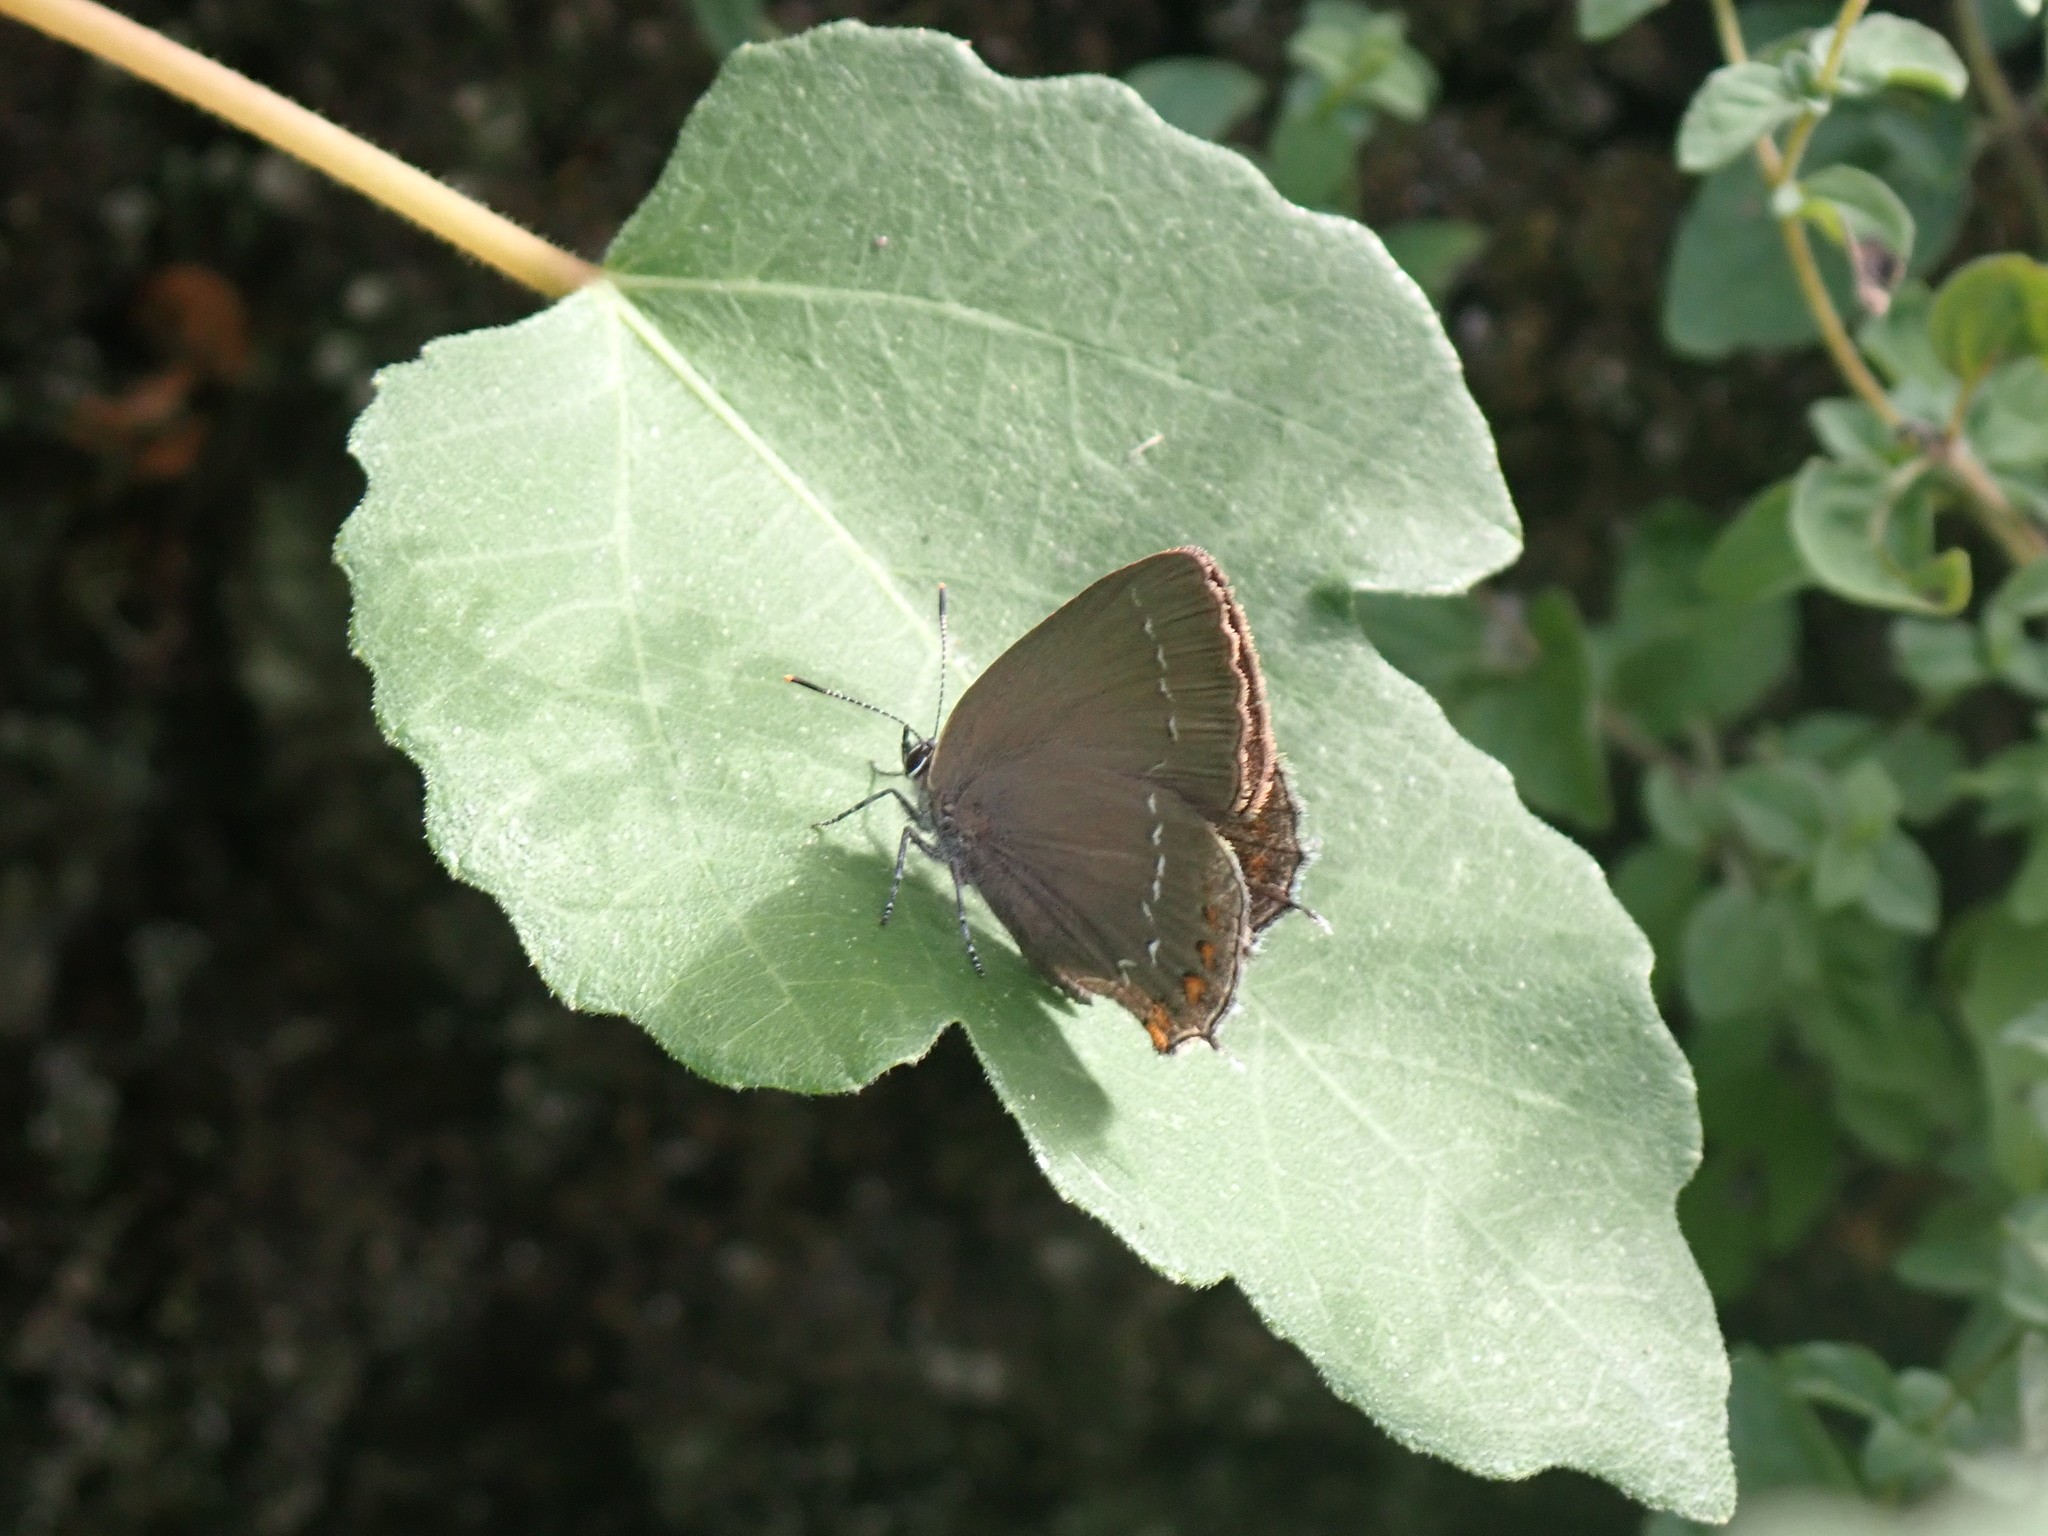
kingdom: Animalia
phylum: Arthropoda
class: Insecta
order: Lepidoptera
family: Lycaenidae
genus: Nordmannia
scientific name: Nordmannia ilicis
